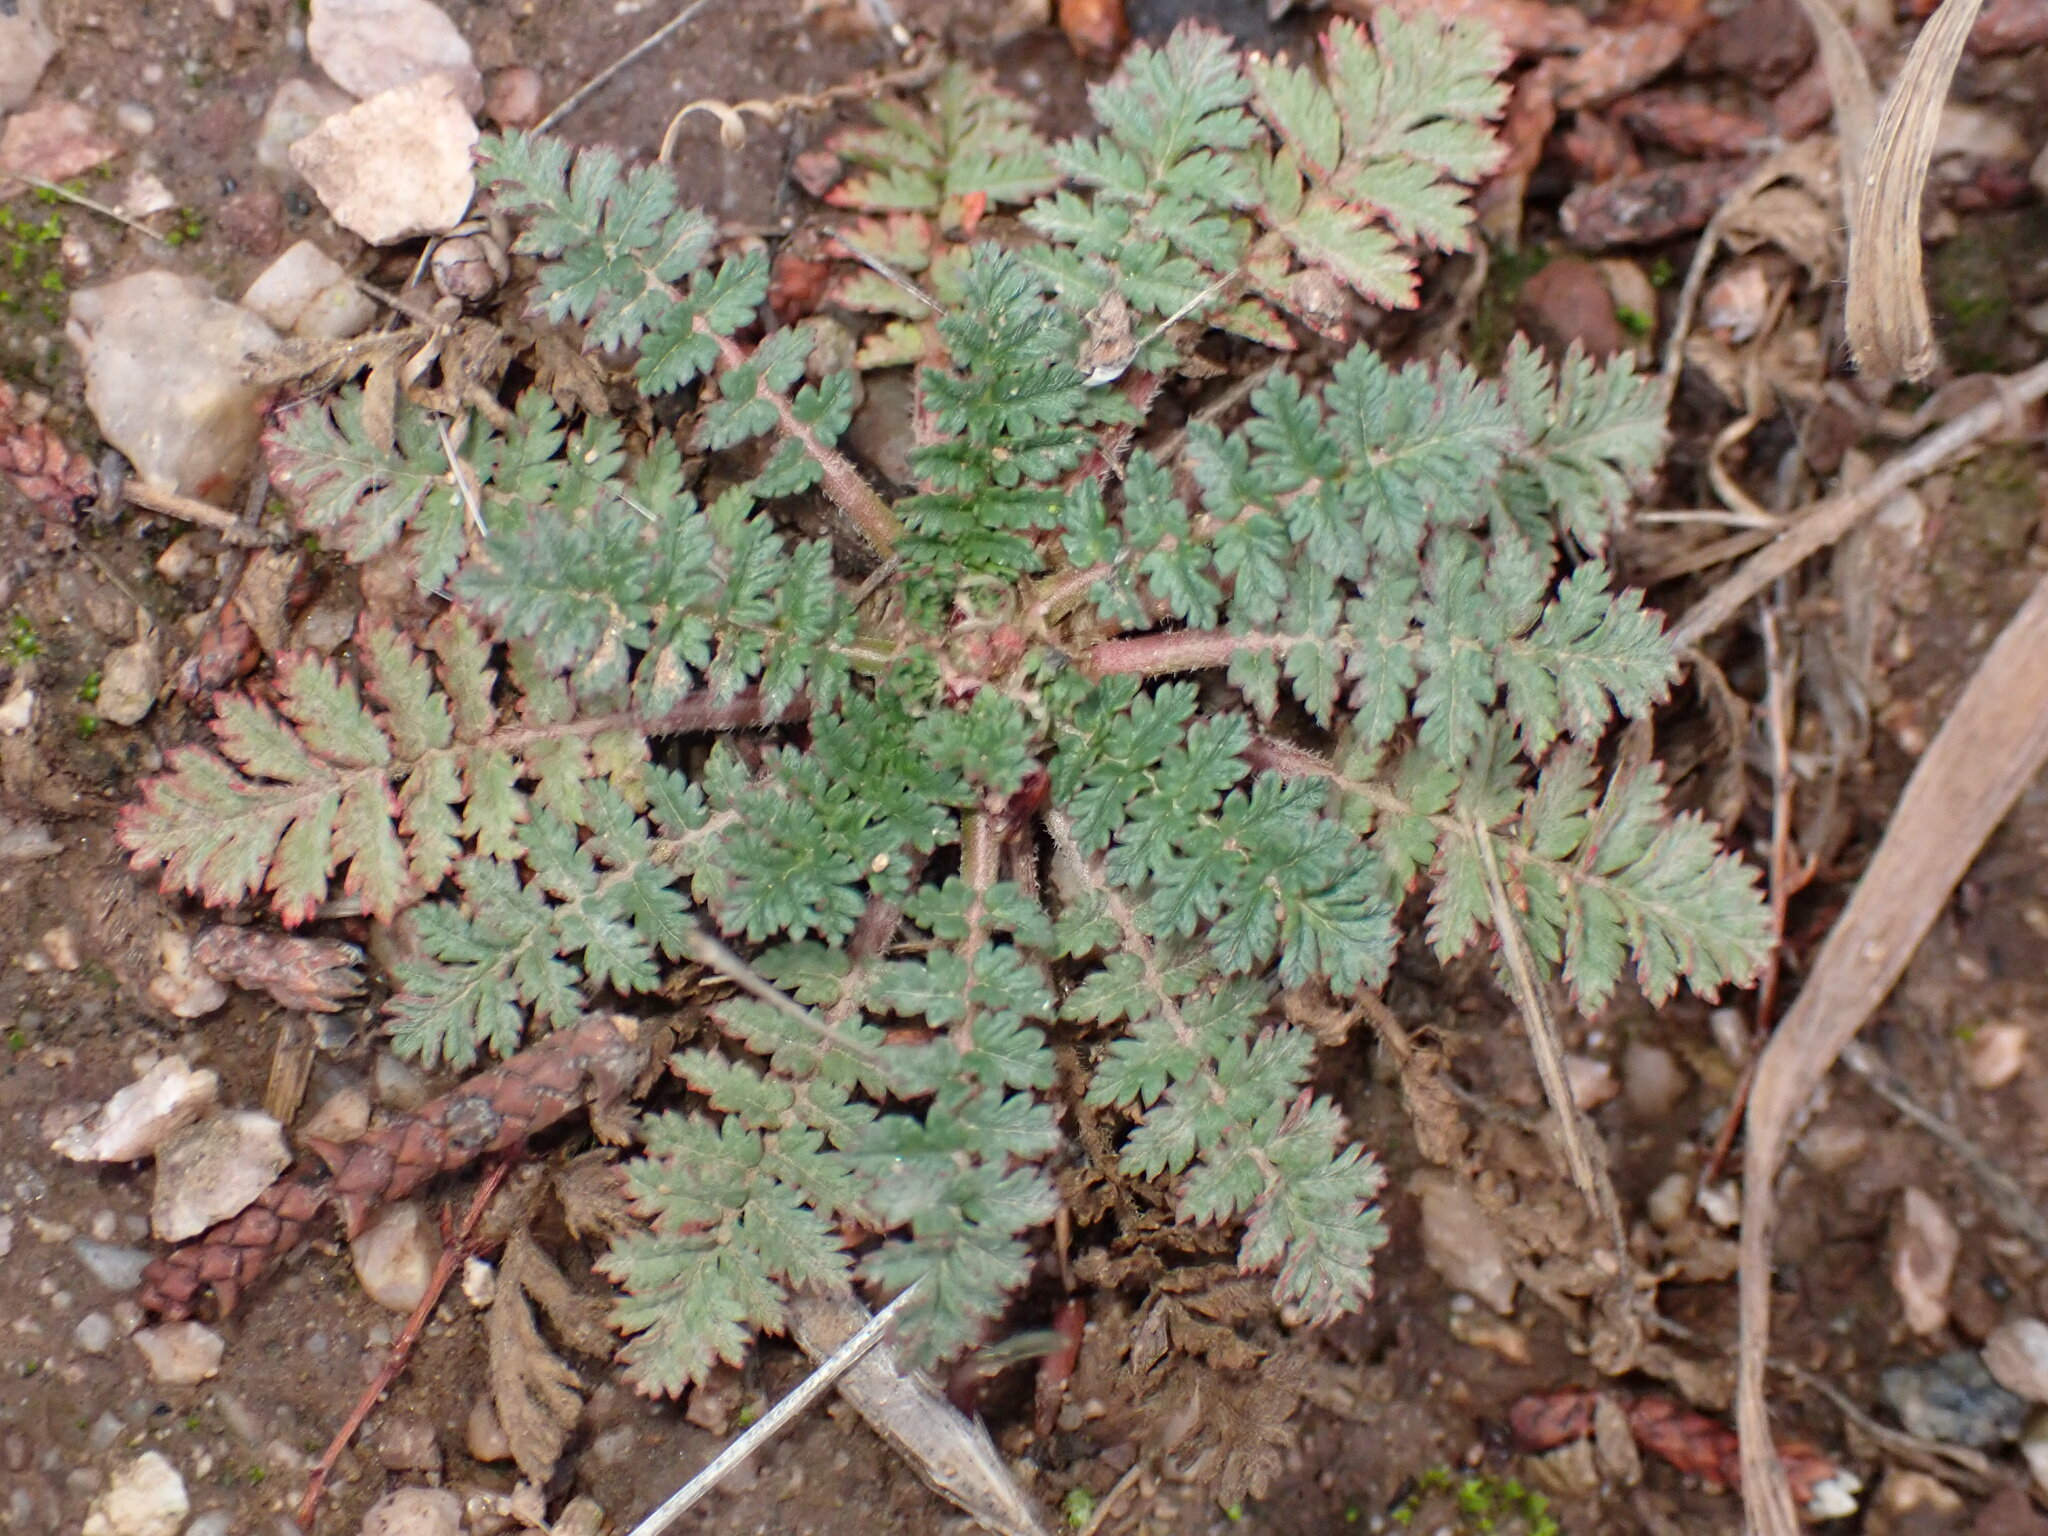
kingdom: Plantae
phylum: Tracheophyta
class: Magnoliopsida
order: Geraniales
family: Geraniaceae
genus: Erodium
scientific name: Erodium cicutarium
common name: Common stork's-bill
